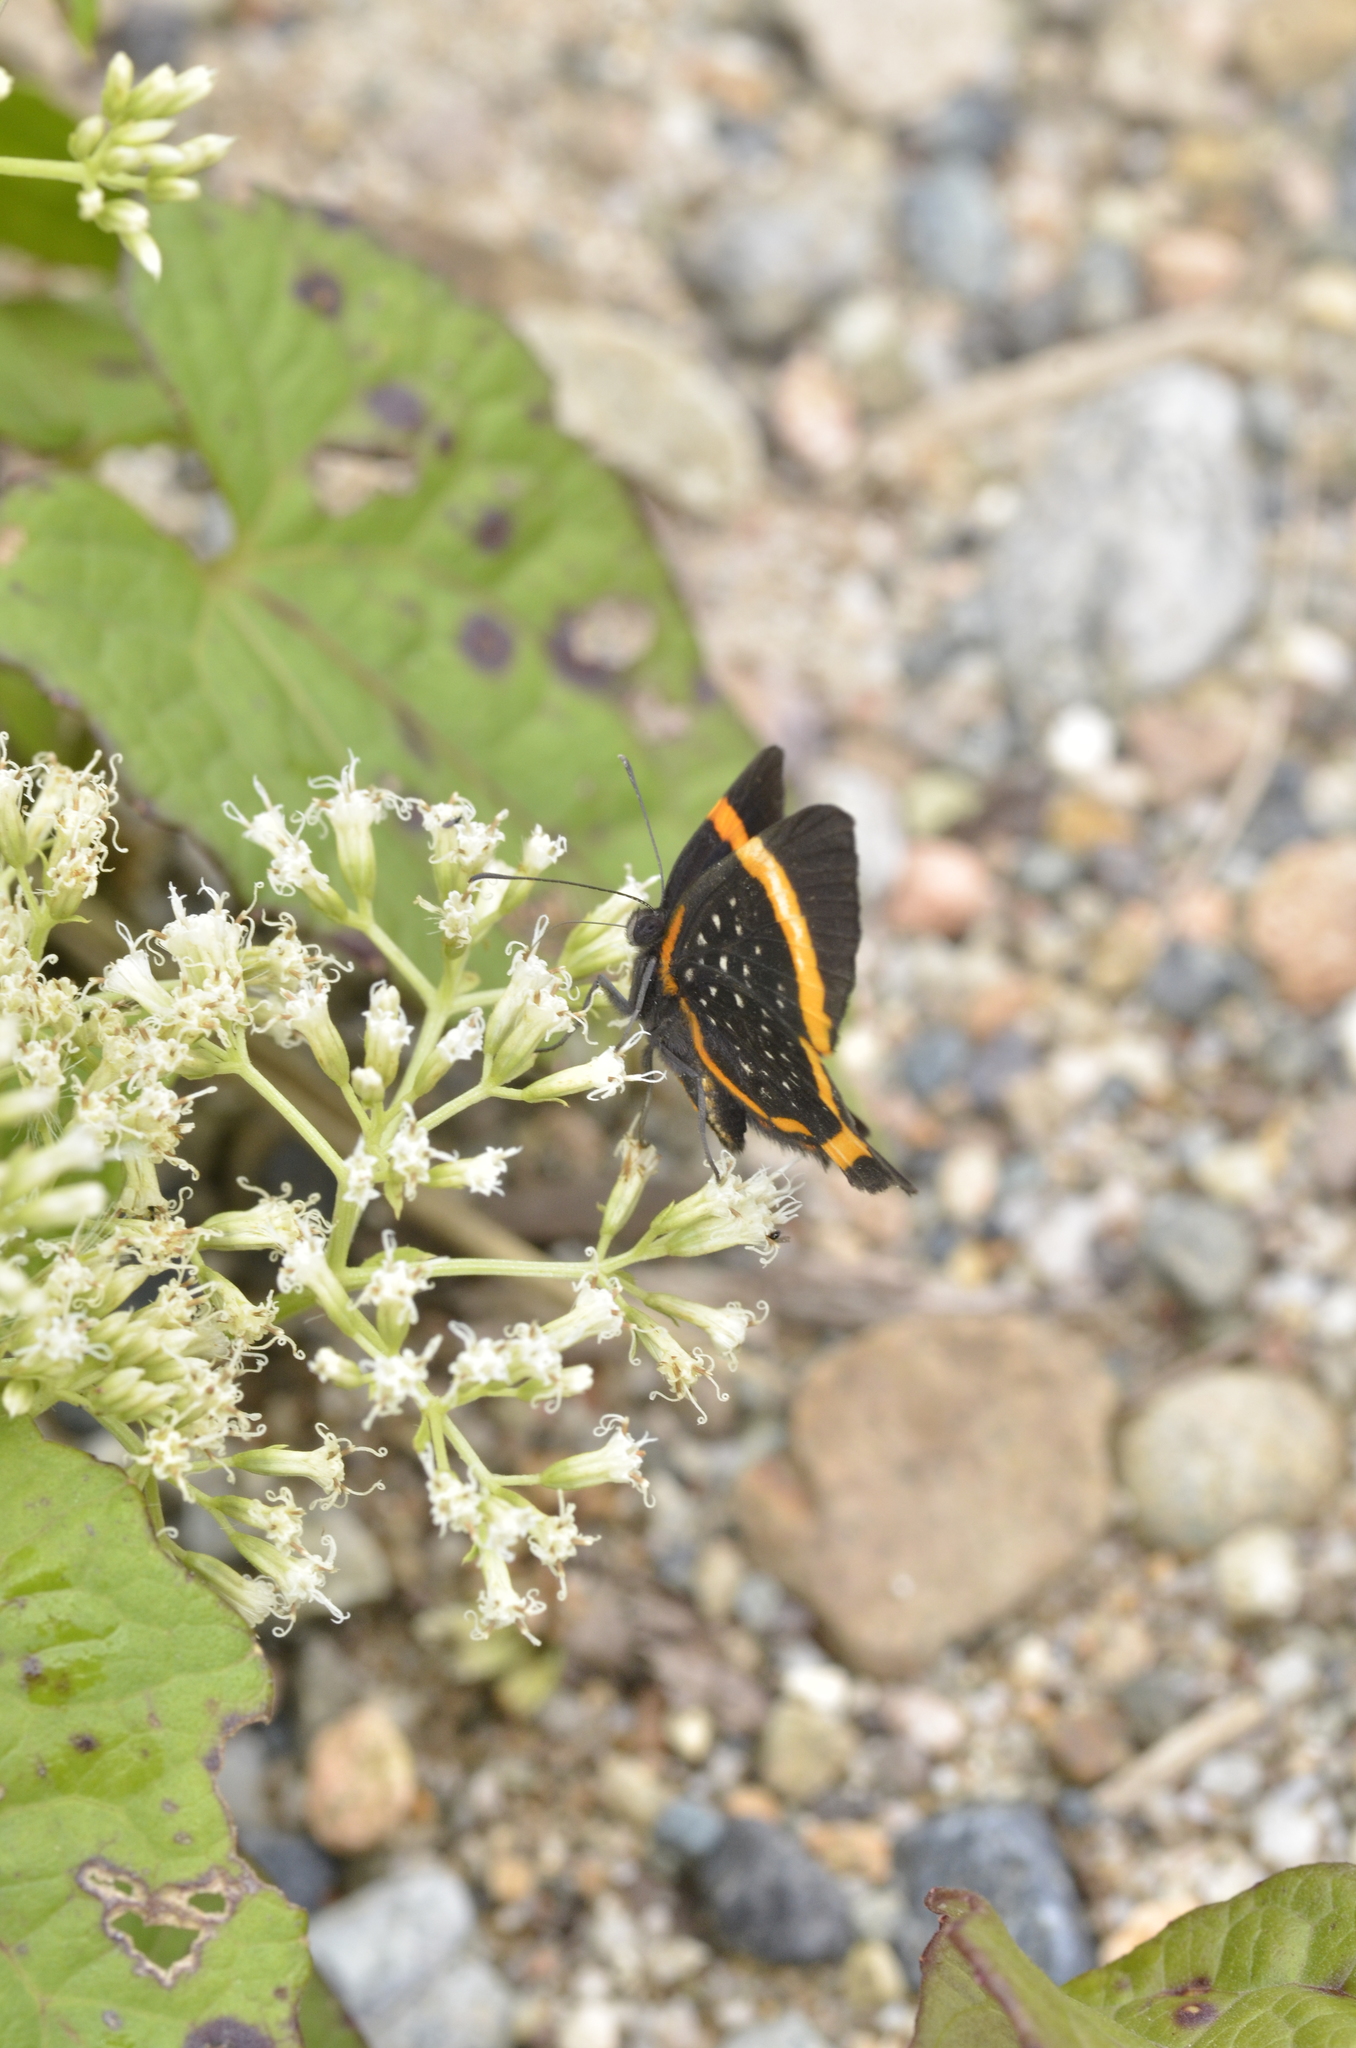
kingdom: Animalia
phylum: Arthropoda
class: Insecta
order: Lepidoptera
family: Riodinidae
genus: Riodina
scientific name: Riodina lysippus
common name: Lysippus metalmark
